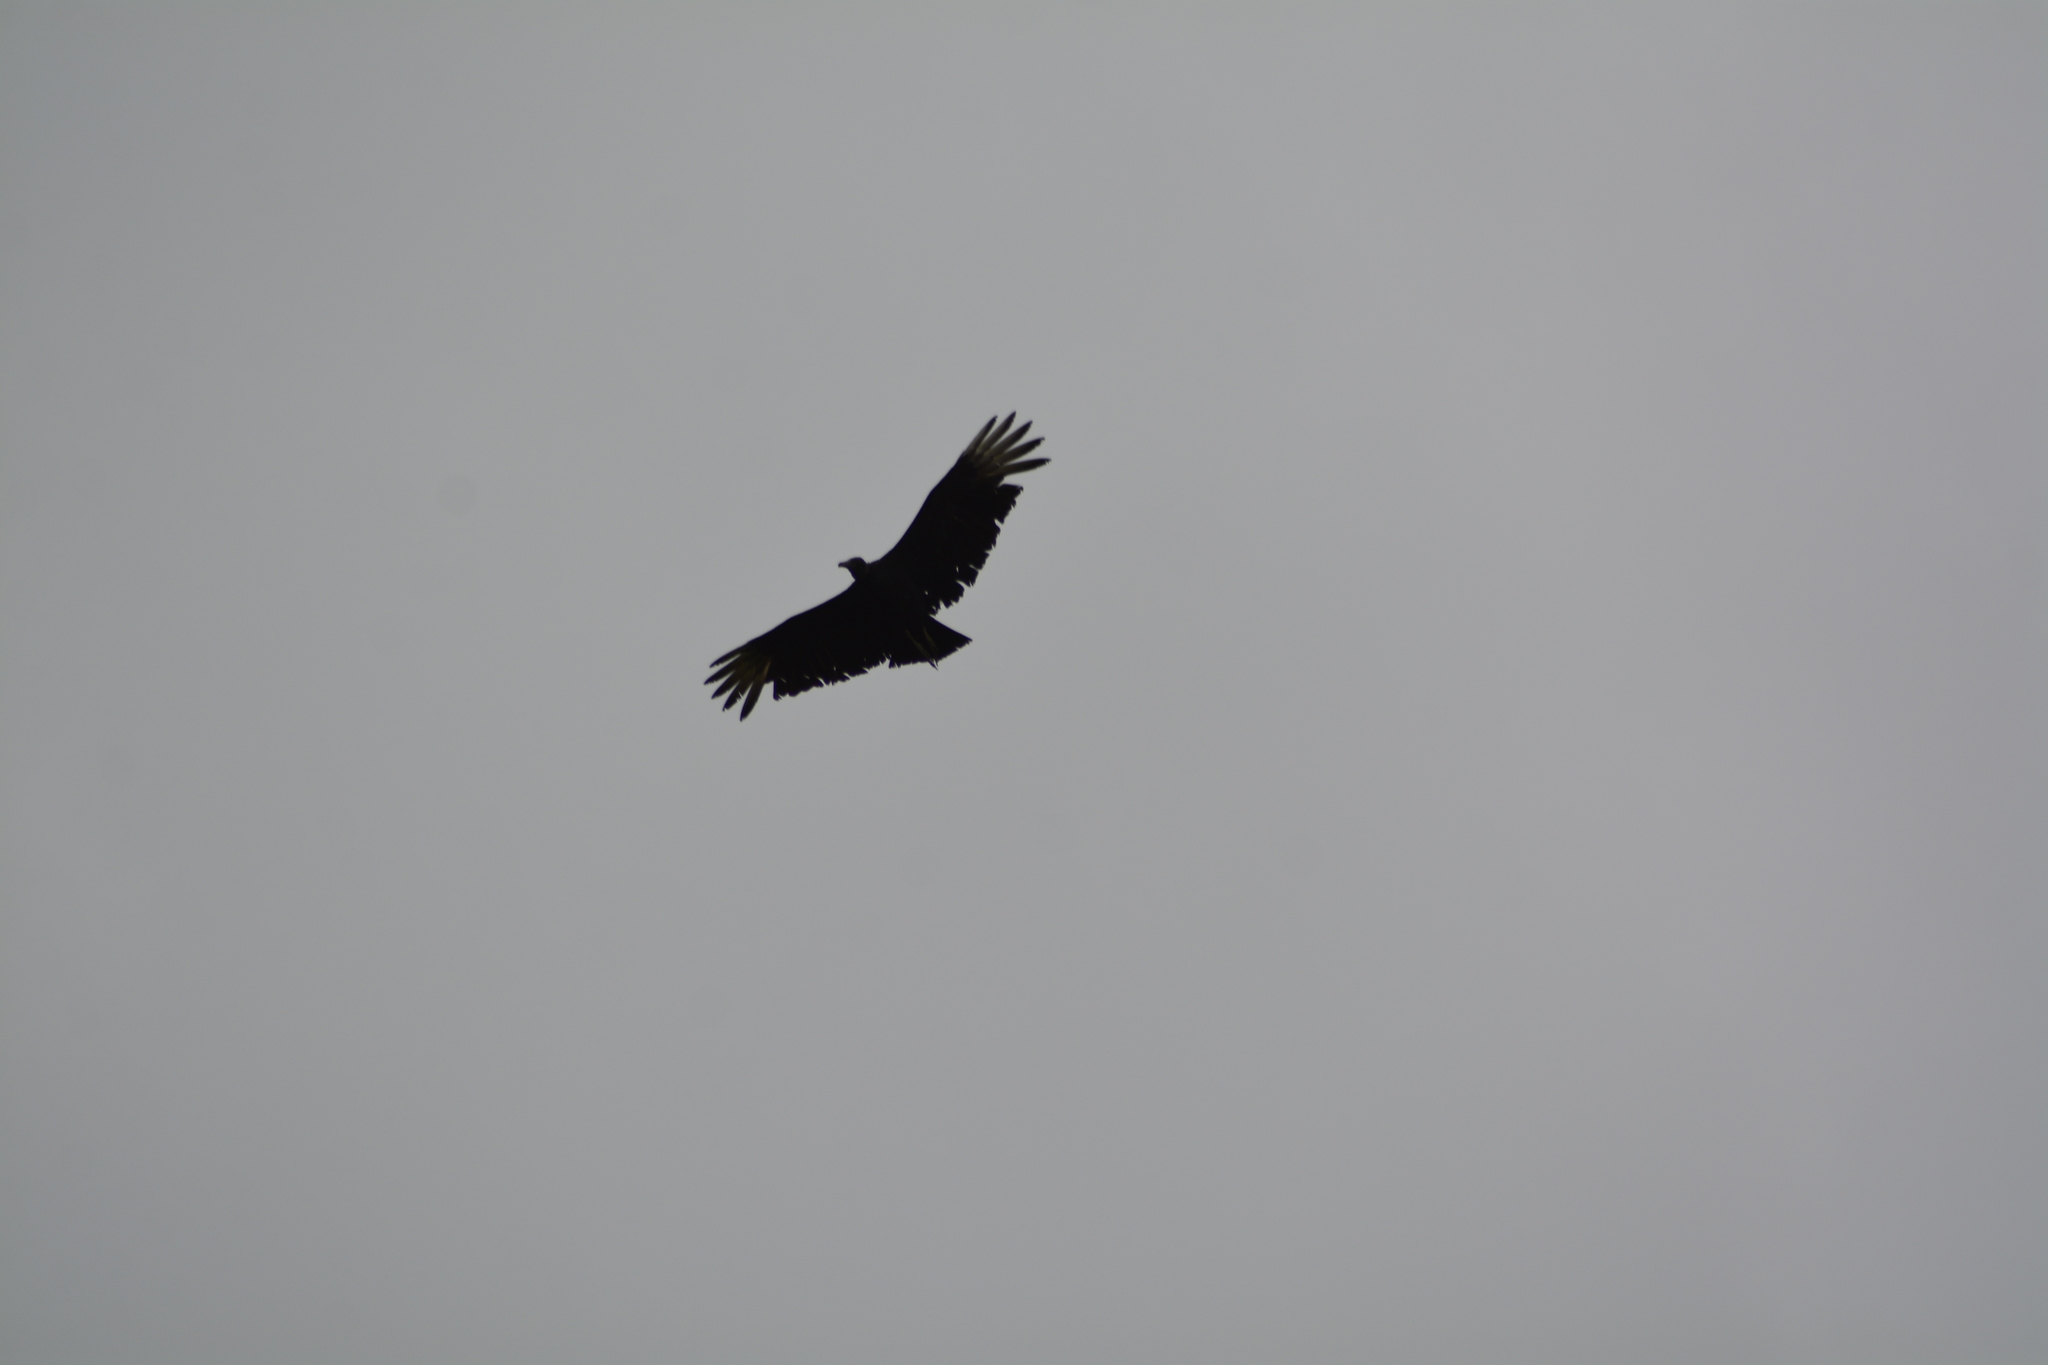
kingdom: Animalia
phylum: Chordata
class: Aves
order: Accipitriformes
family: Cathartidae
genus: Coragyps
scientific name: Coragyps atratus
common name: Black vulture
